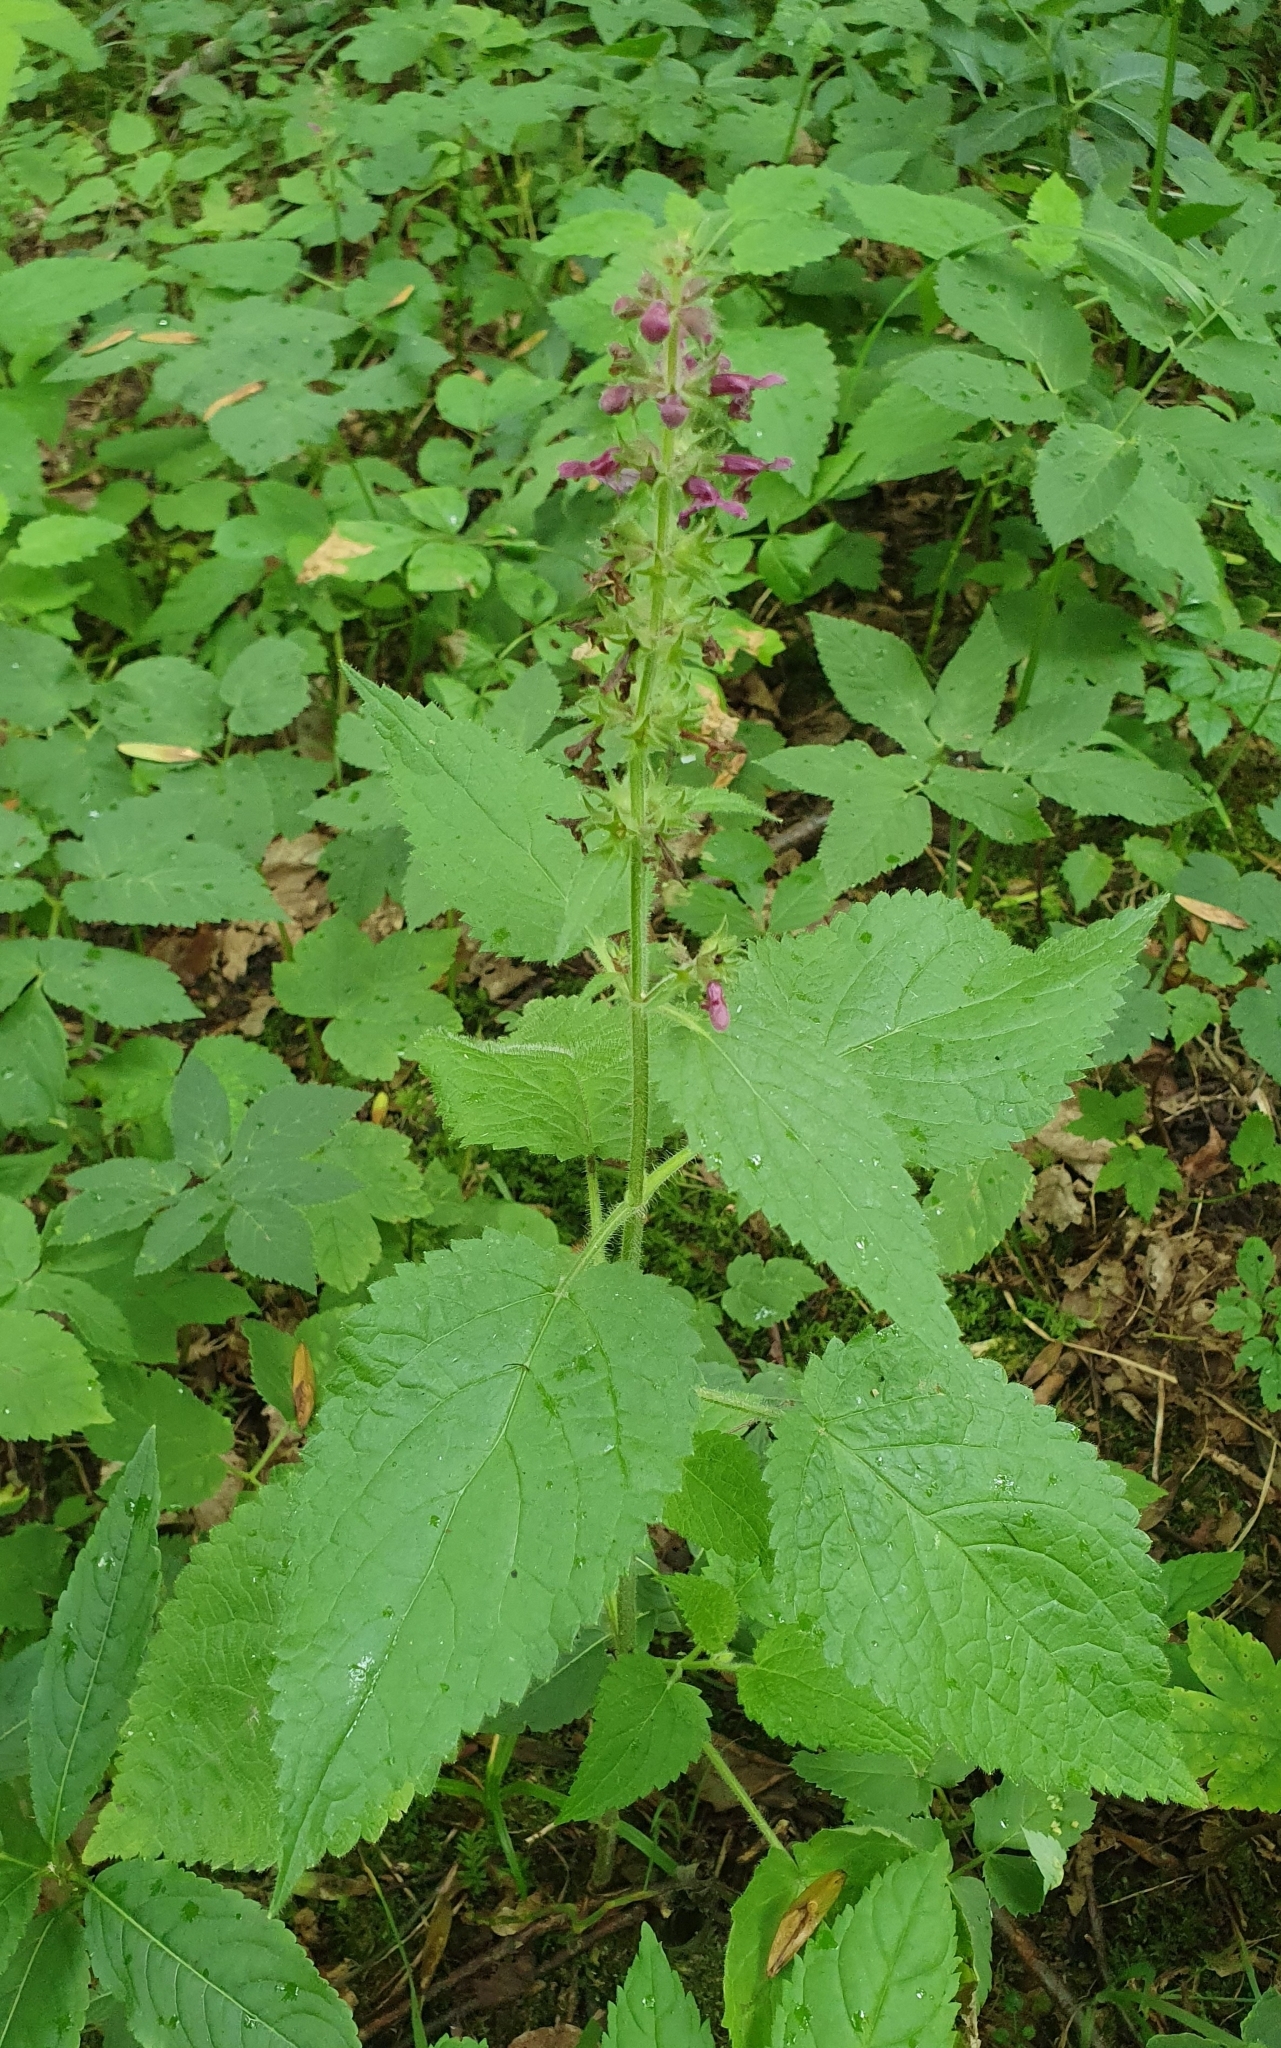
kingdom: Plantae
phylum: Tracheophyta
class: Magnoliopsida
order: Lamiales
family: Lamiaceae
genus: Stachys
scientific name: Stachys sylvatica
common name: Hedge woundwort
